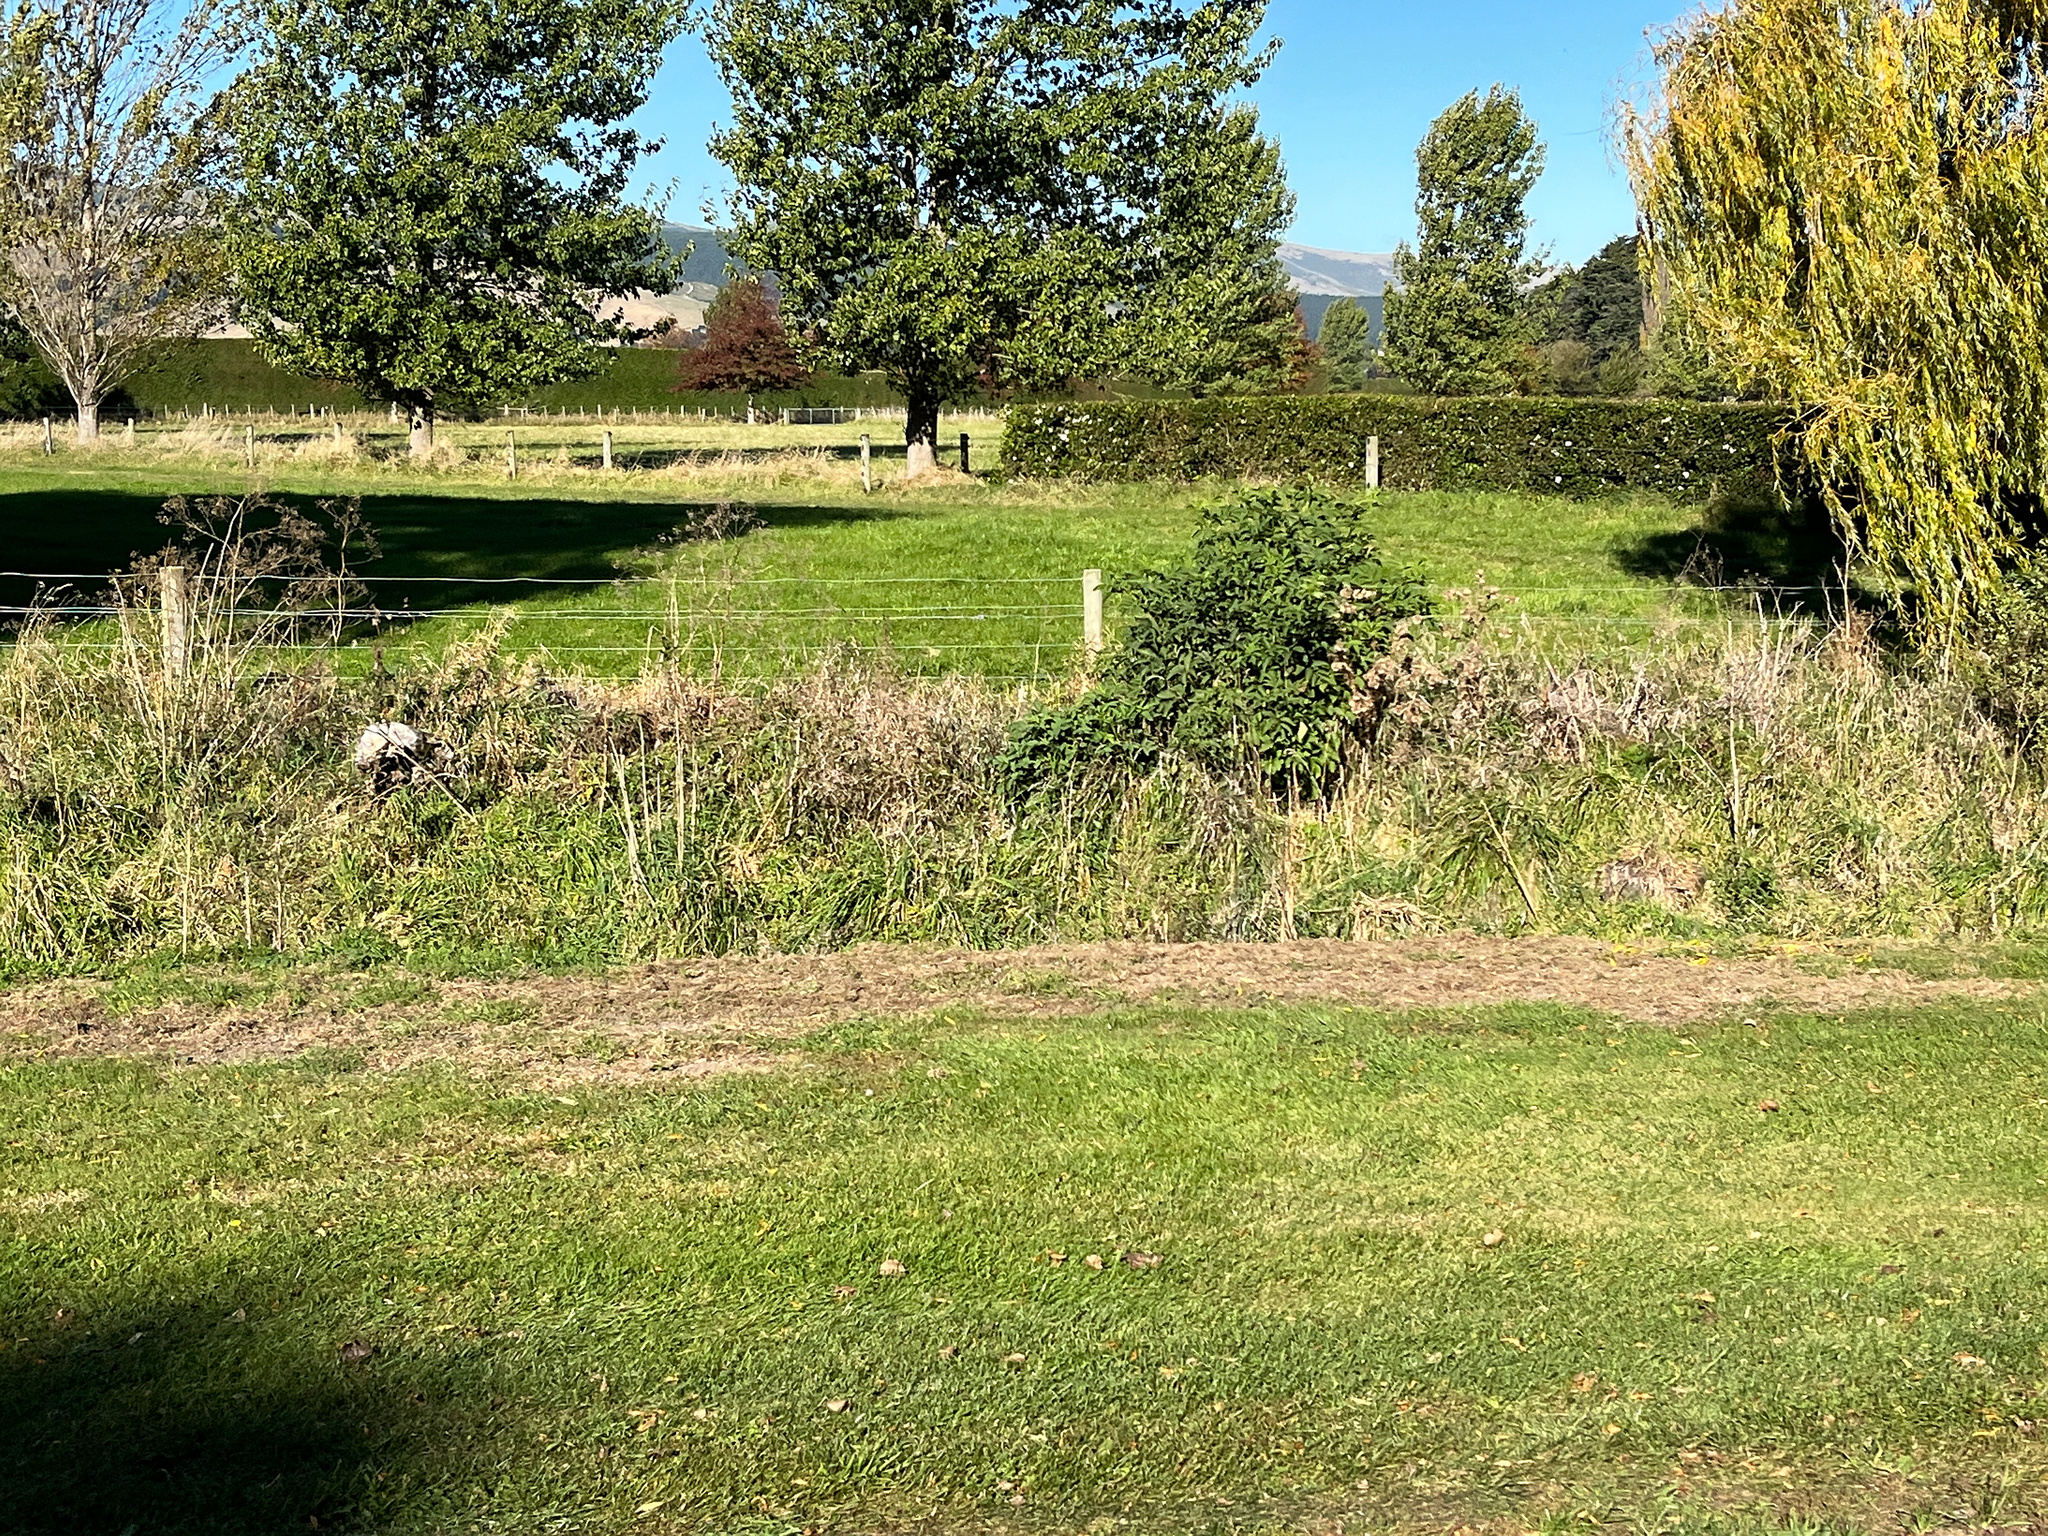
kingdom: Plantae
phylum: Tracheophyta
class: Magnoliopsida
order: Dipsacales
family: Viburnaceae
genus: Sambucus
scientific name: Sambucus nigra
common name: Elder
